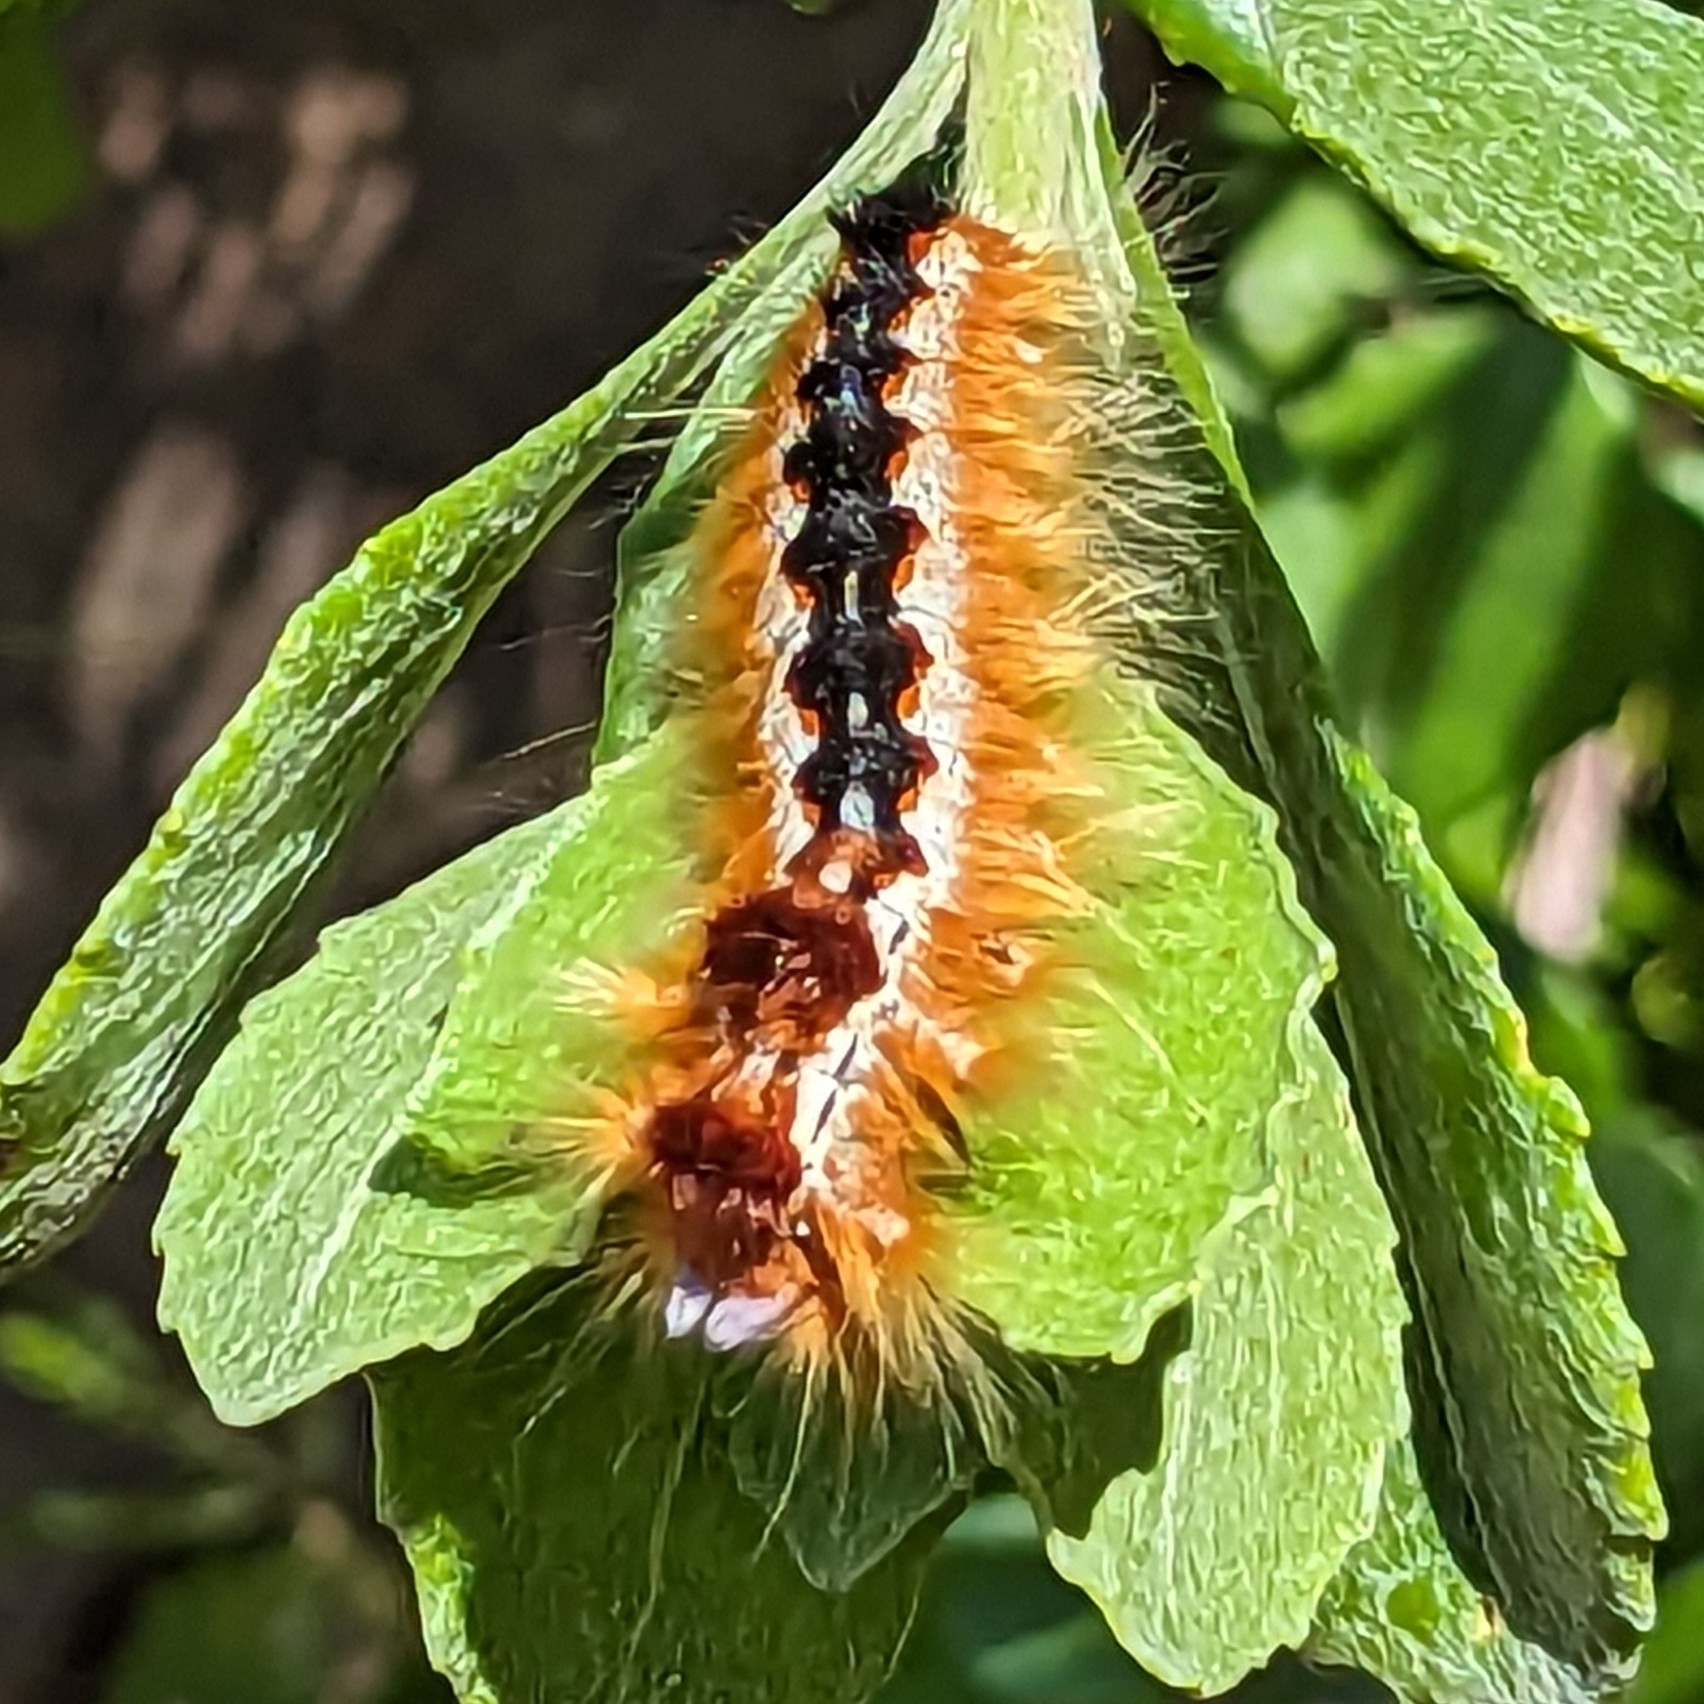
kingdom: Animalia
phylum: Arthropoda
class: Insecta
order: Lepidoptera
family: Lasiocampidae
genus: Eutricha
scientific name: Eutricha capensis
